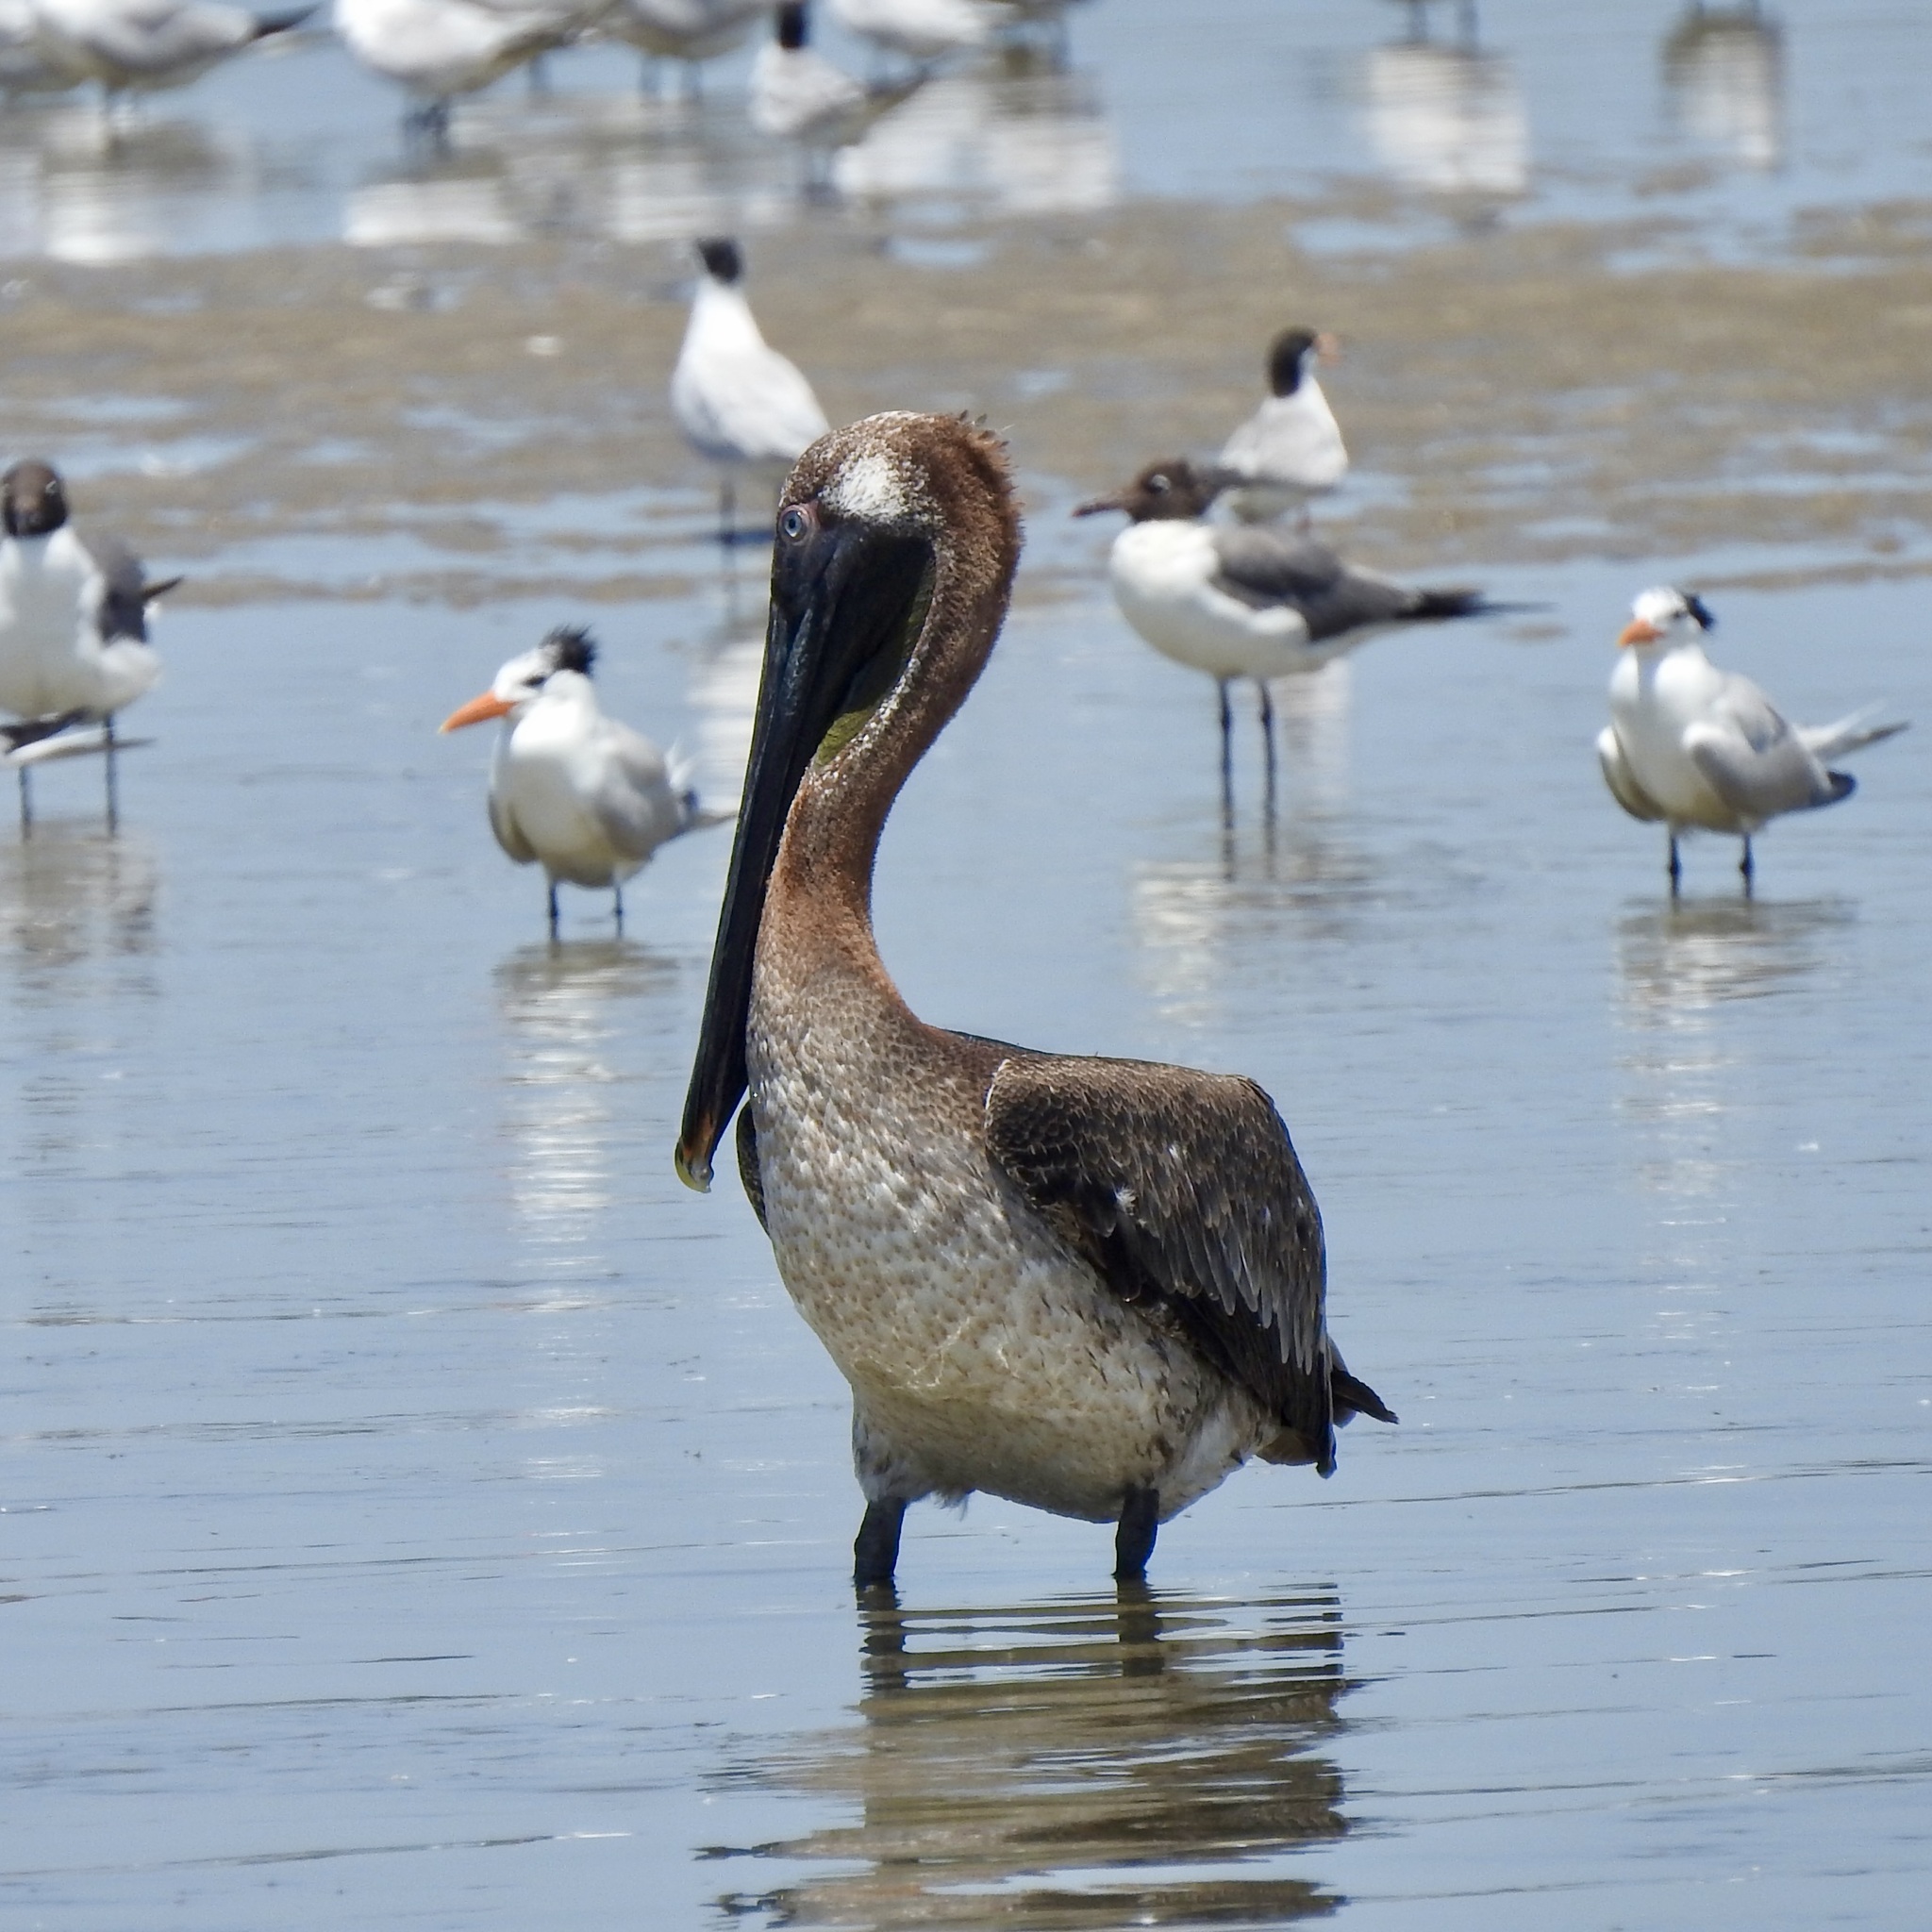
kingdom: Animalia
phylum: Chordata
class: Aves
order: Pelecaniformes
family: Pelecanidae
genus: Pelecanus
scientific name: Pelecanus occidentalis
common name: Brown pelican
